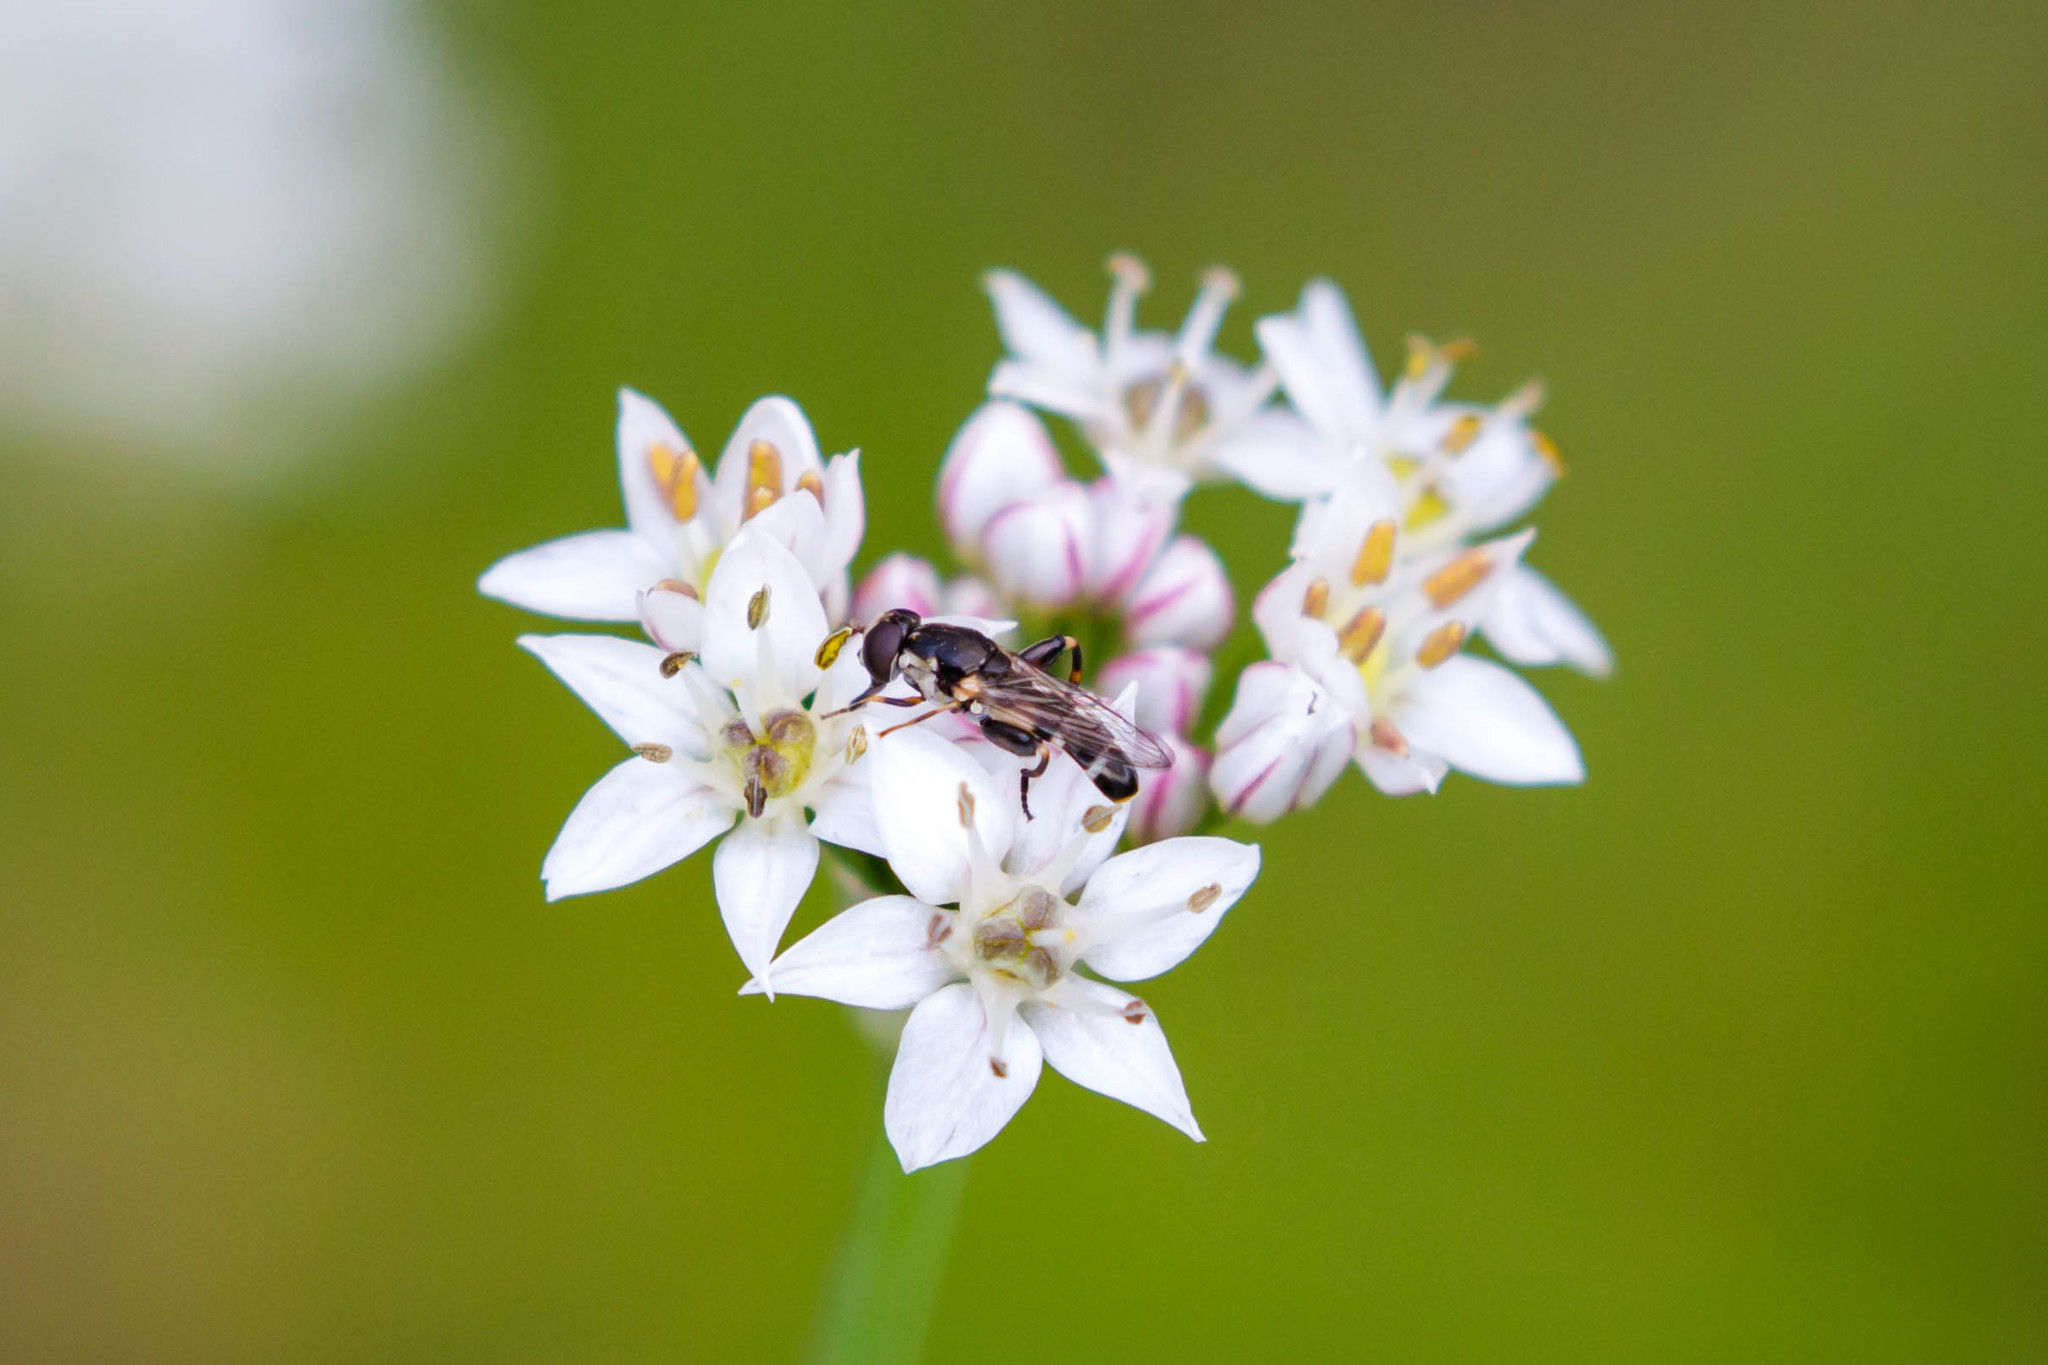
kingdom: Animalia
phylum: Arthropoda
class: Insecta
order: Diptera
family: Syrphidae
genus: Syritta
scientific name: Syritta pipiens
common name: Hover fly
